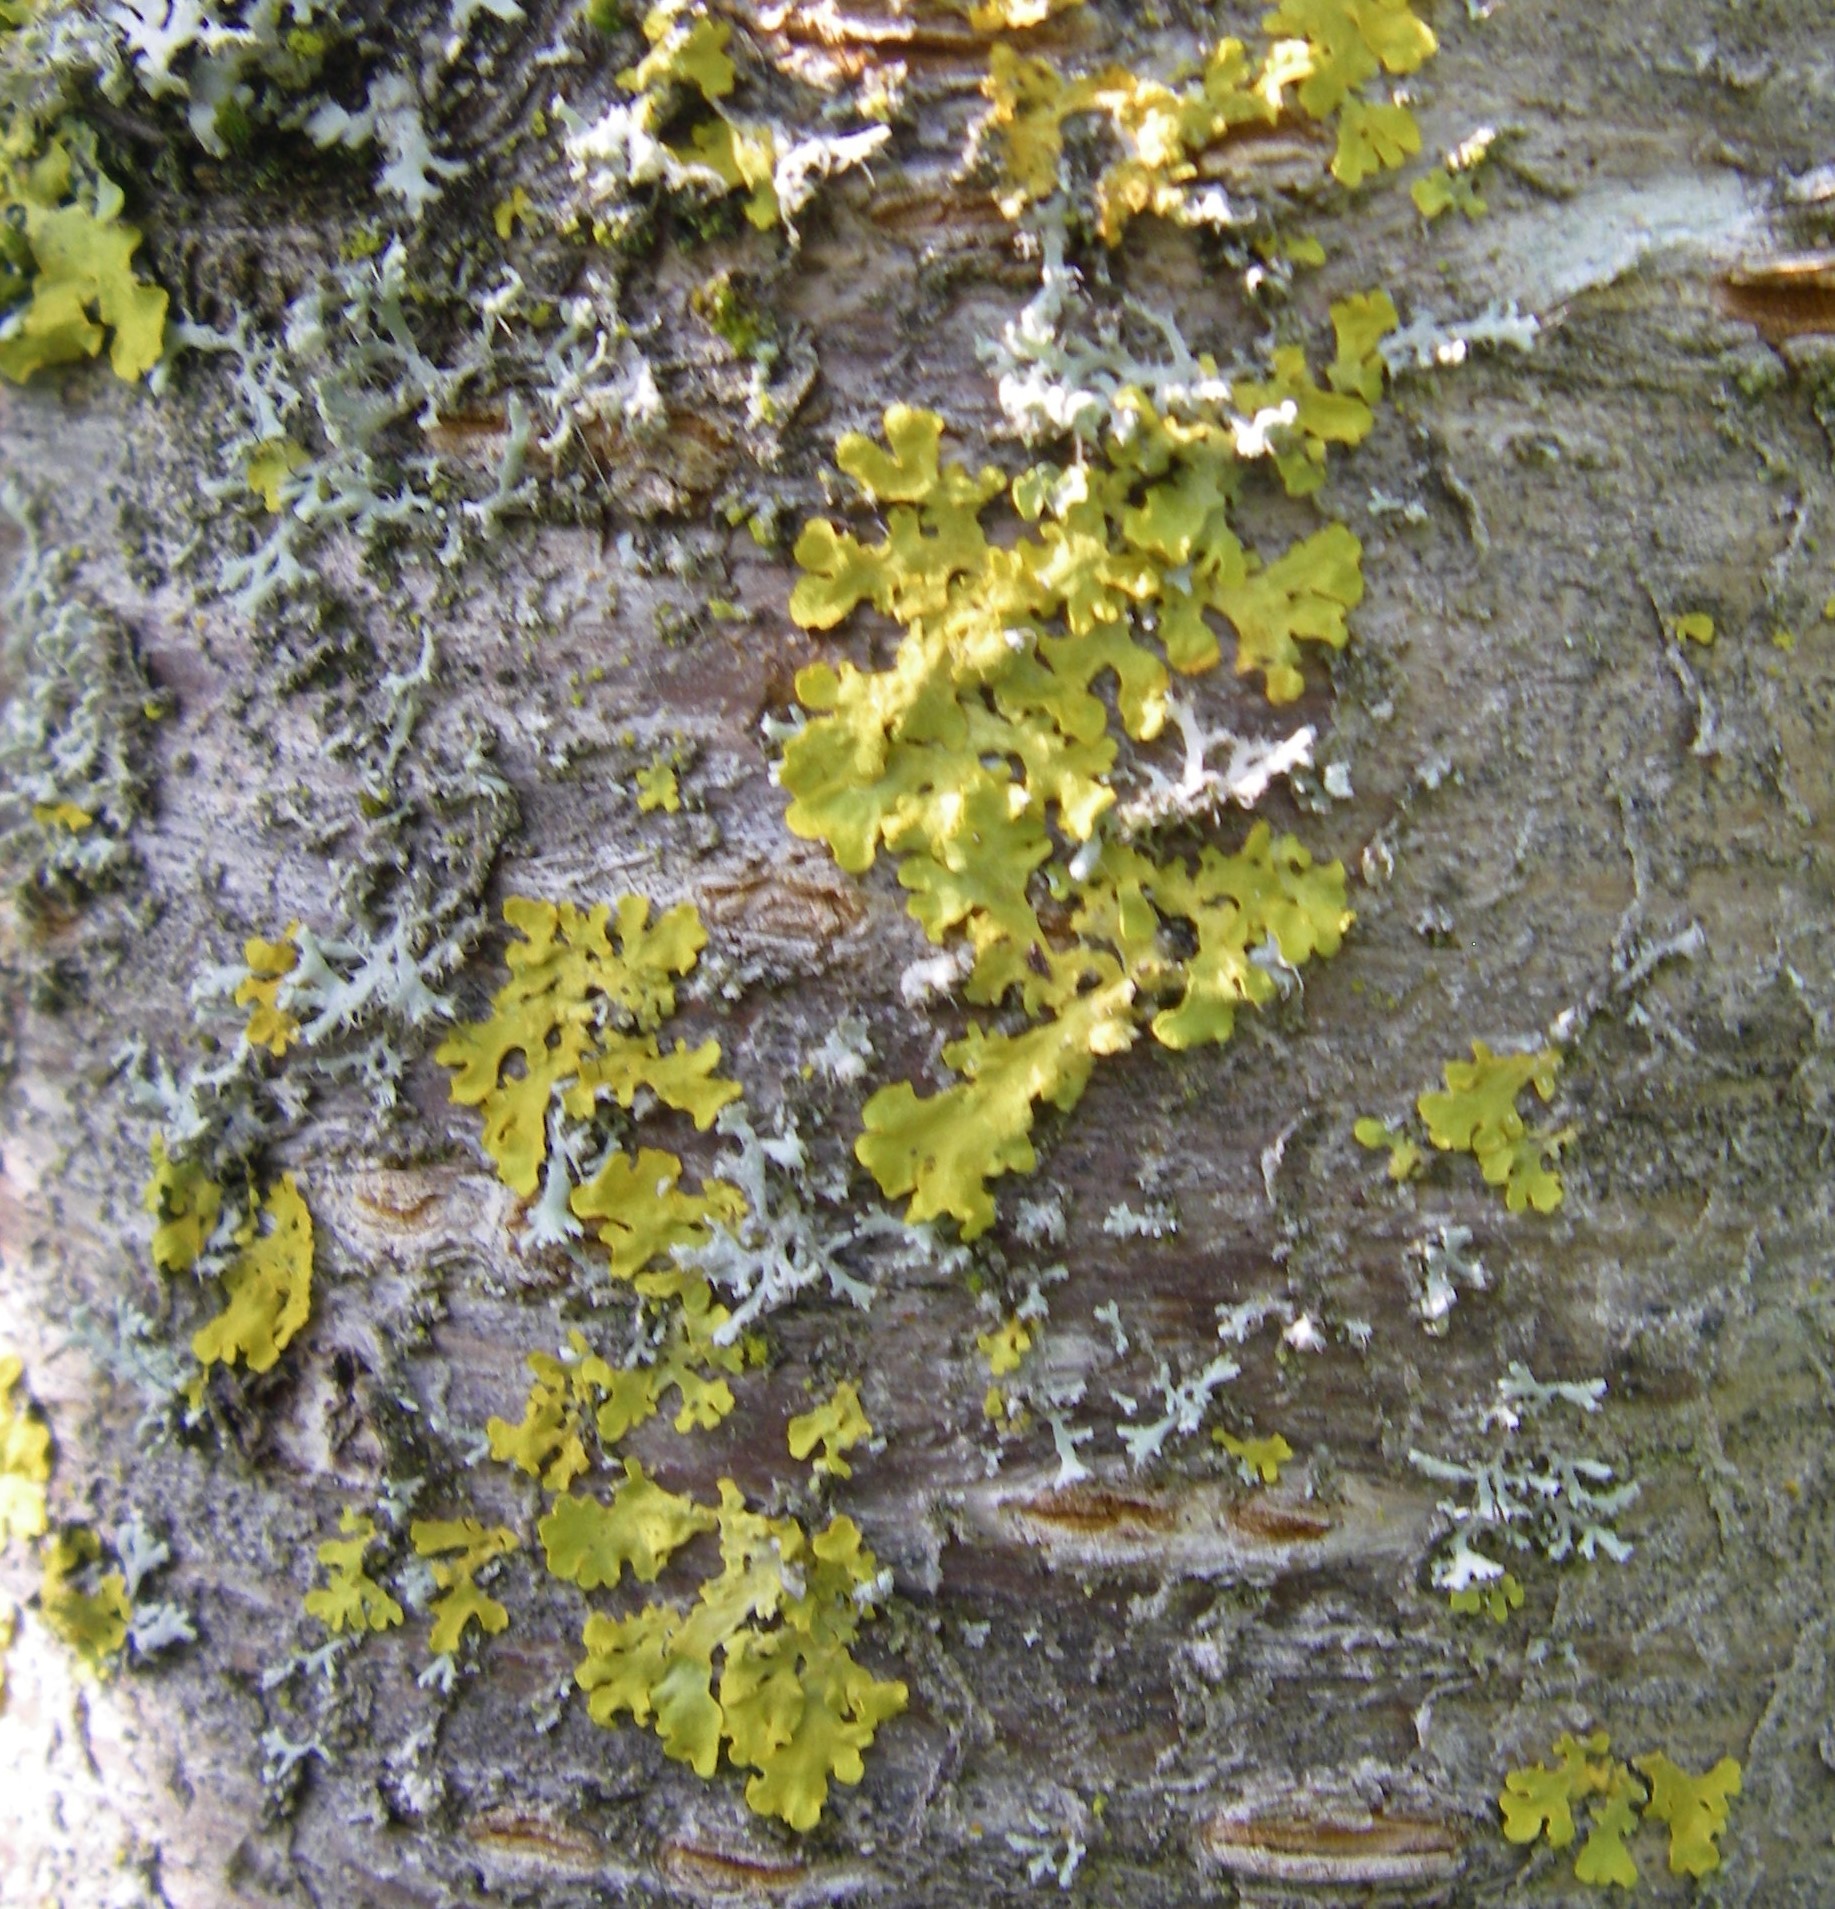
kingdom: Fungi
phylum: Ascomycota
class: Lecanoromycetes
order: Teloschistales
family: Teloschistaceae
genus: Xanthoria
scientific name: Xanthoria parietina
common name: Common orange lichen
